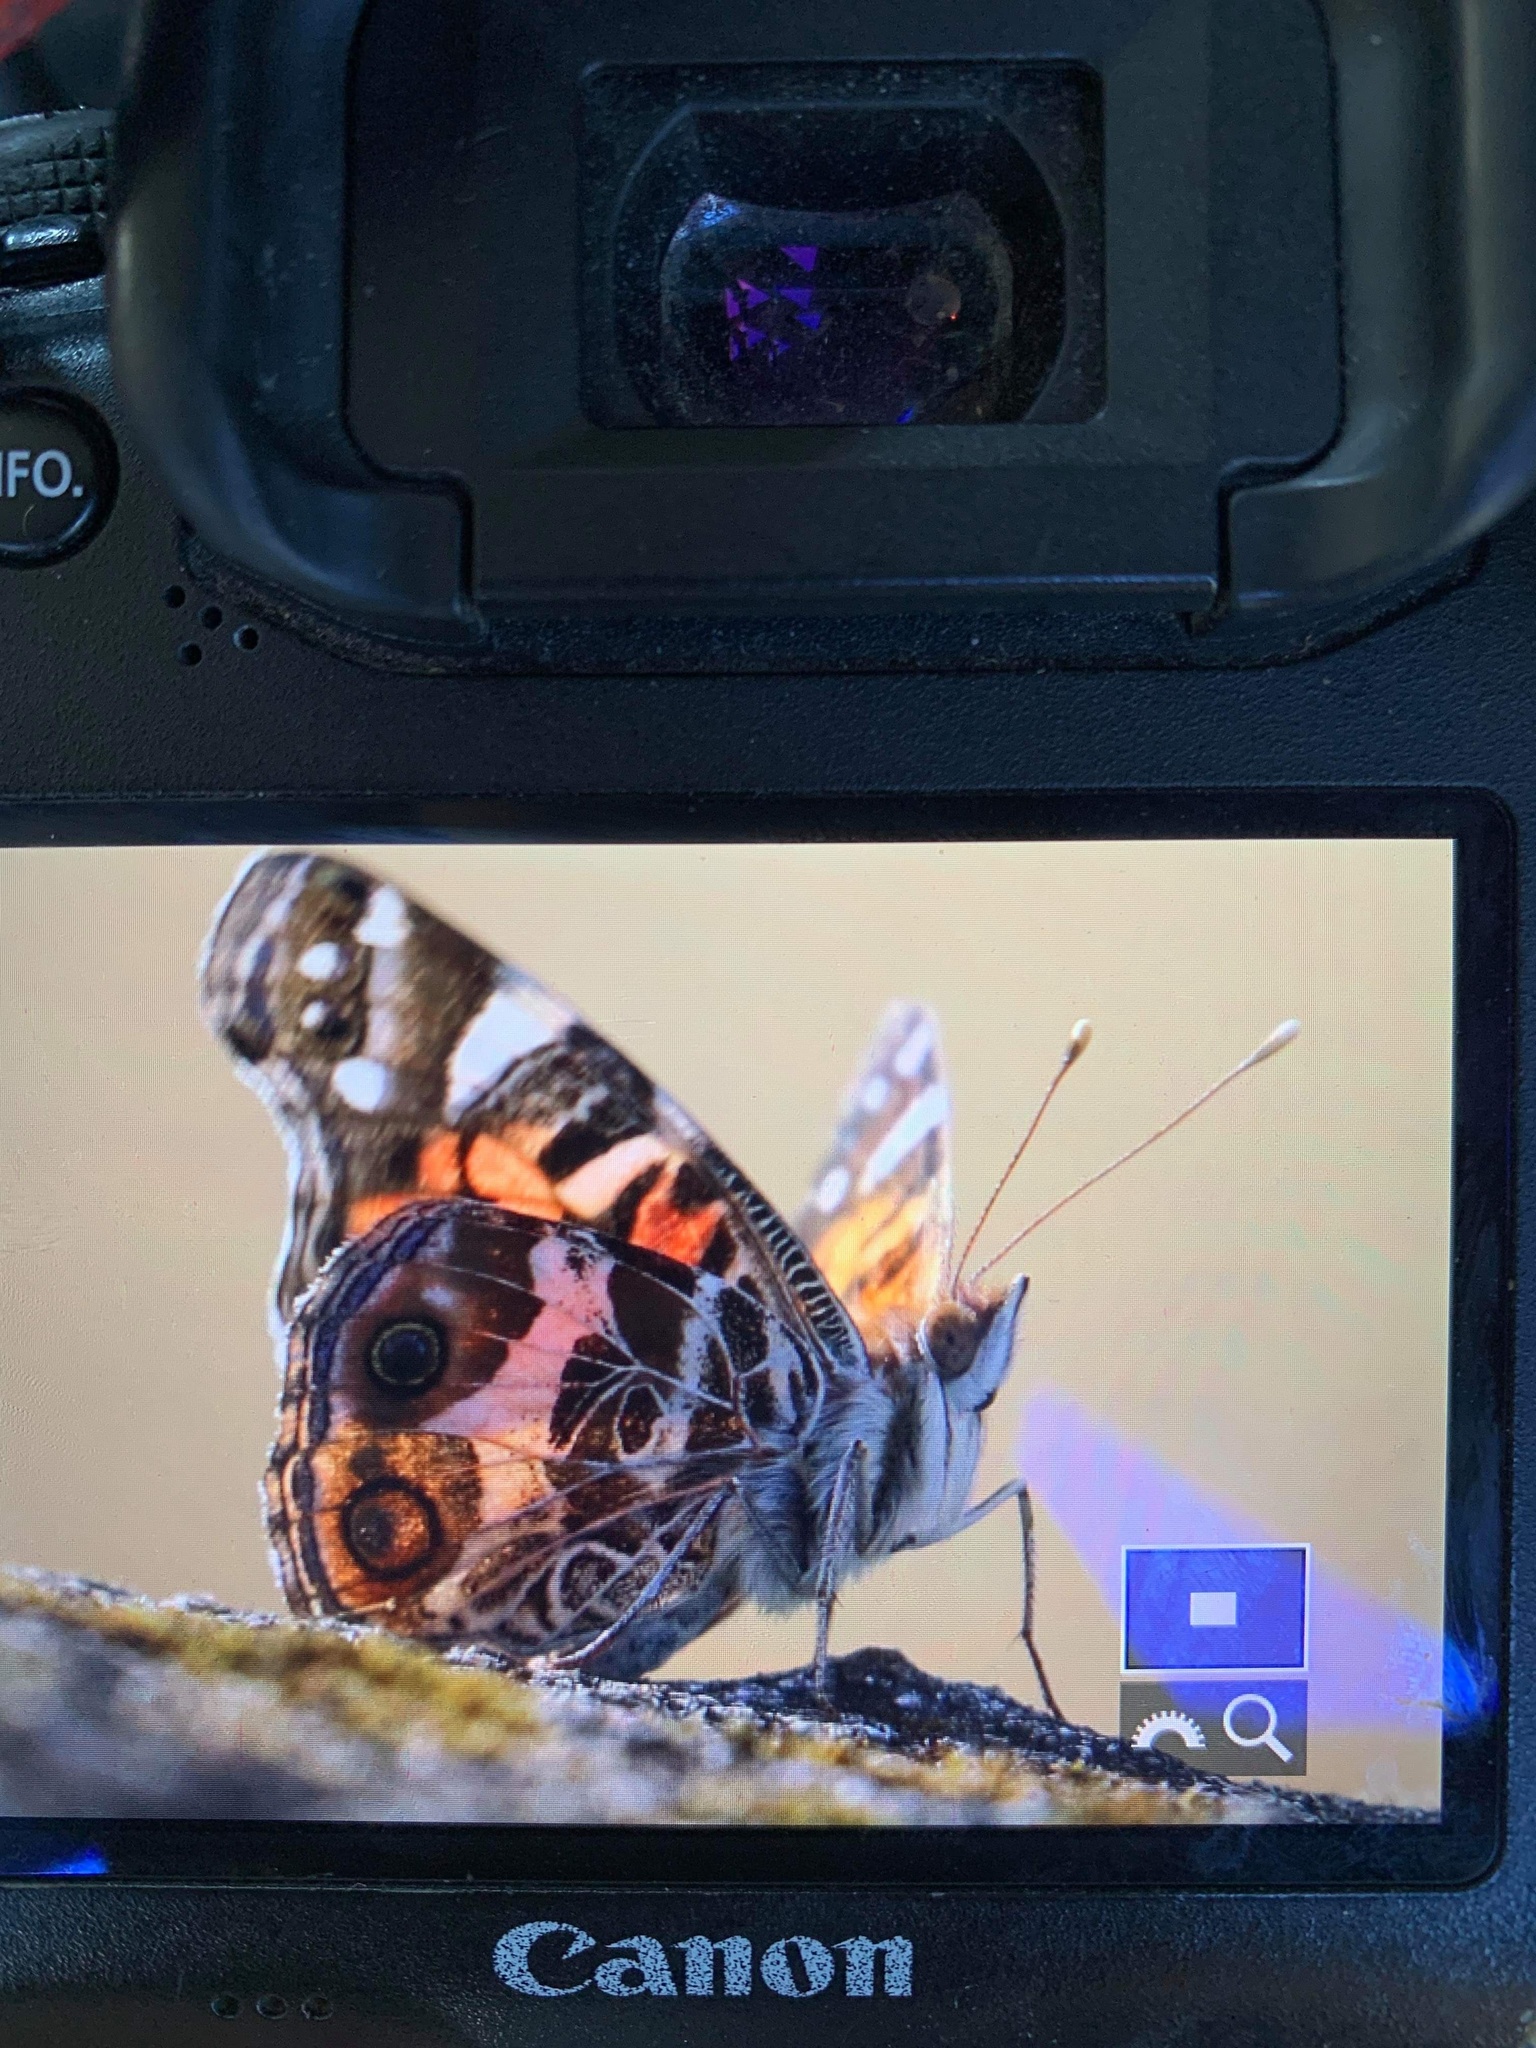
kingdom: Animalia
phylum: Arthropoda
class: Insecta
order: Lepidoptera
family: Nymphalidae
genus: Vanessa
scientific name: Vanessa virginiensis
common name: American lady
